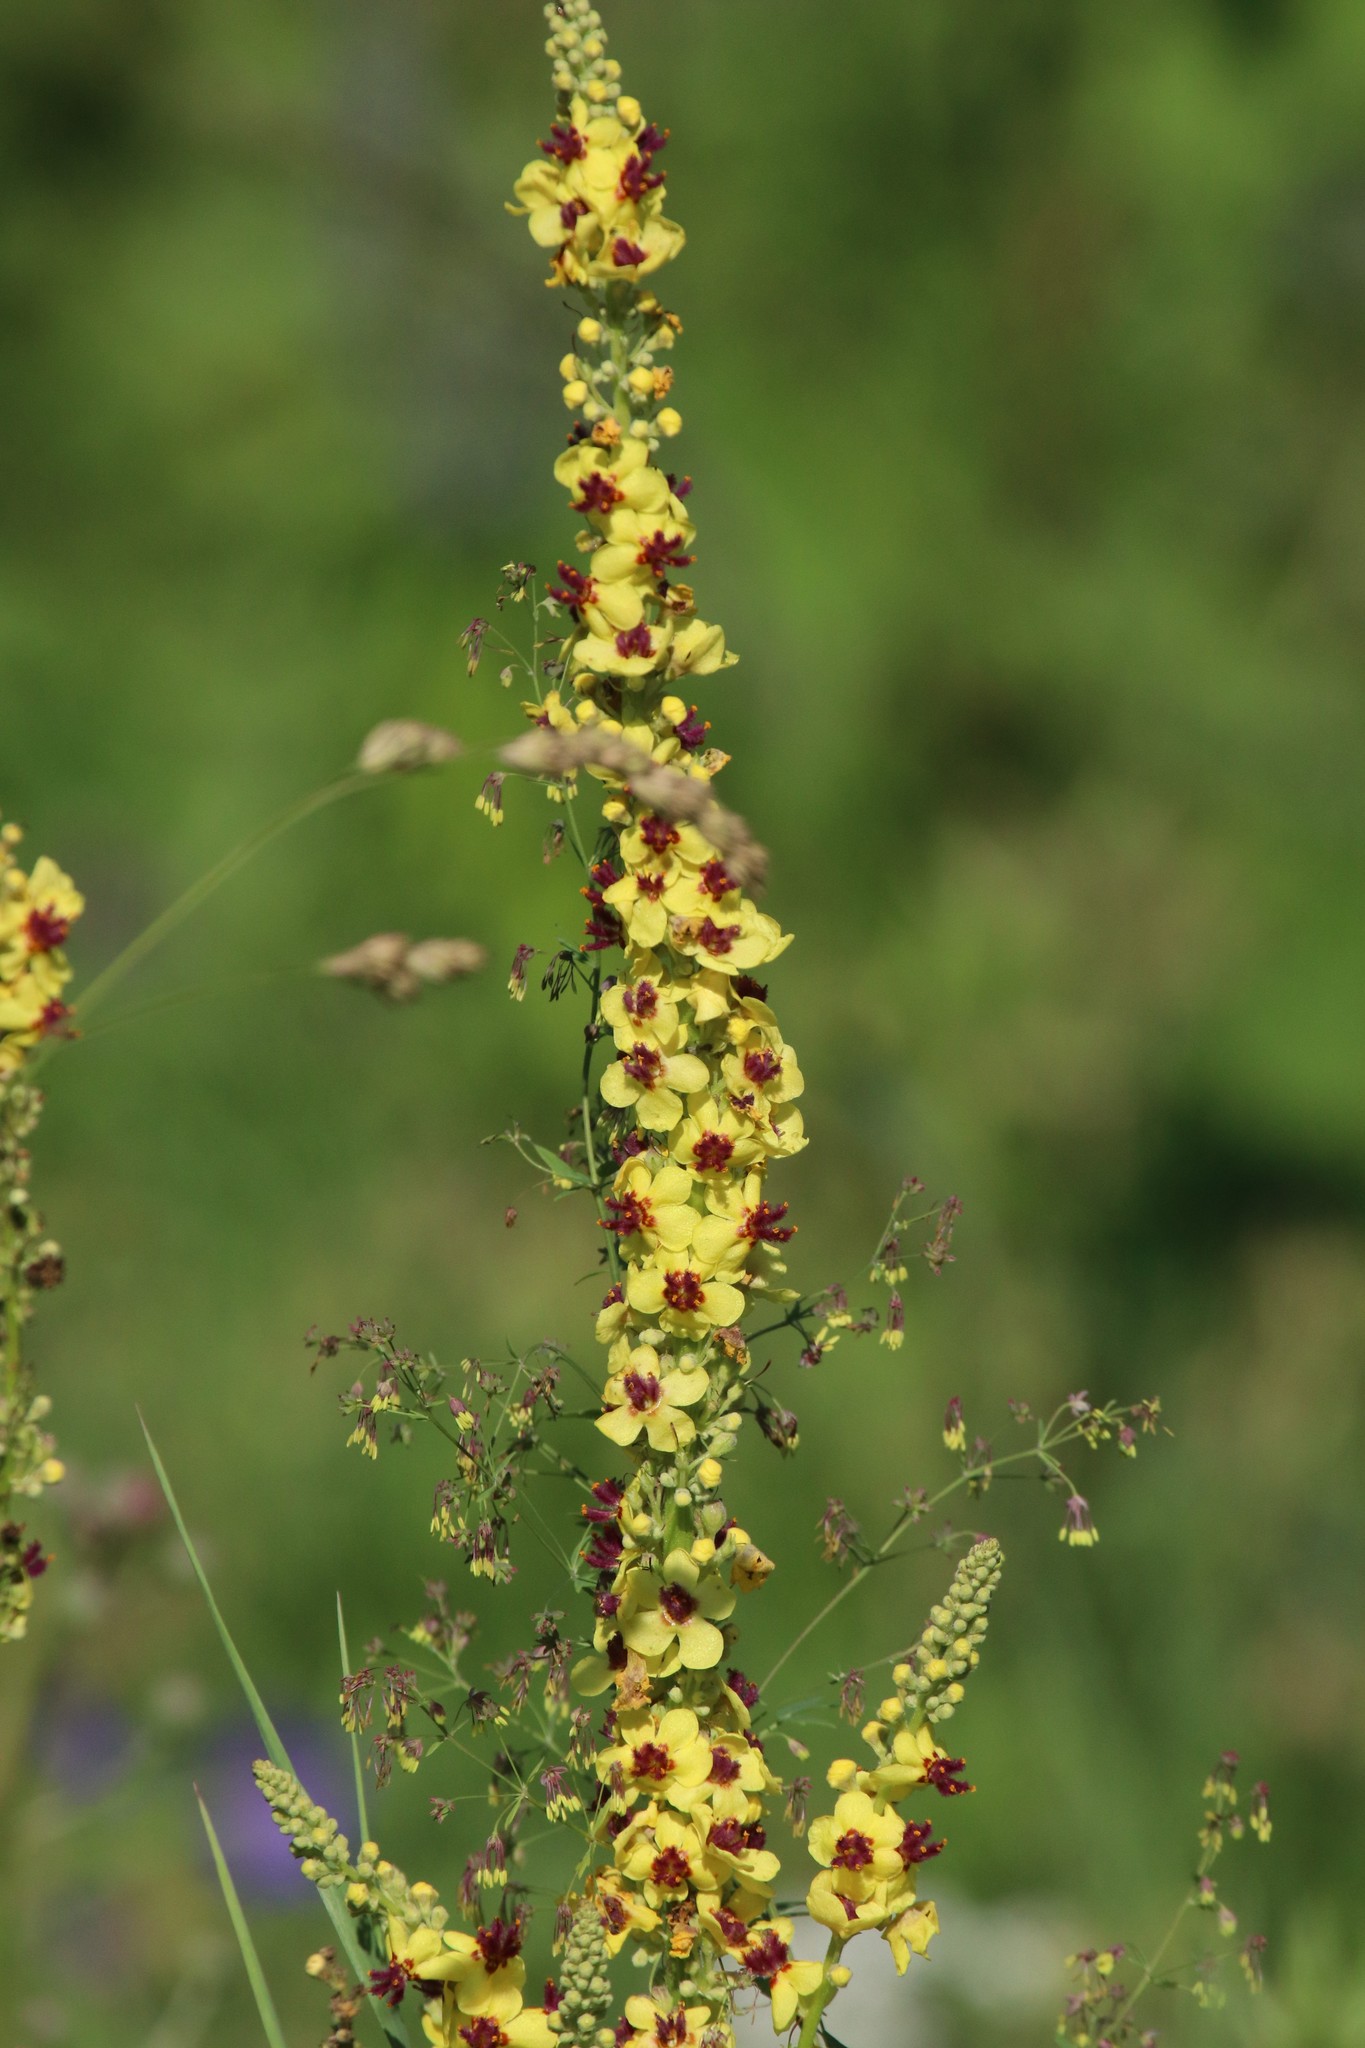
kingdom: Plantae
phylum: Tracheophyta
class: Magnoliopsida
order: Lamiales
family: Scrophulariaceae
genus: Verbascum
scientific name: Verbascum nigrum
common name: Dark mullein
